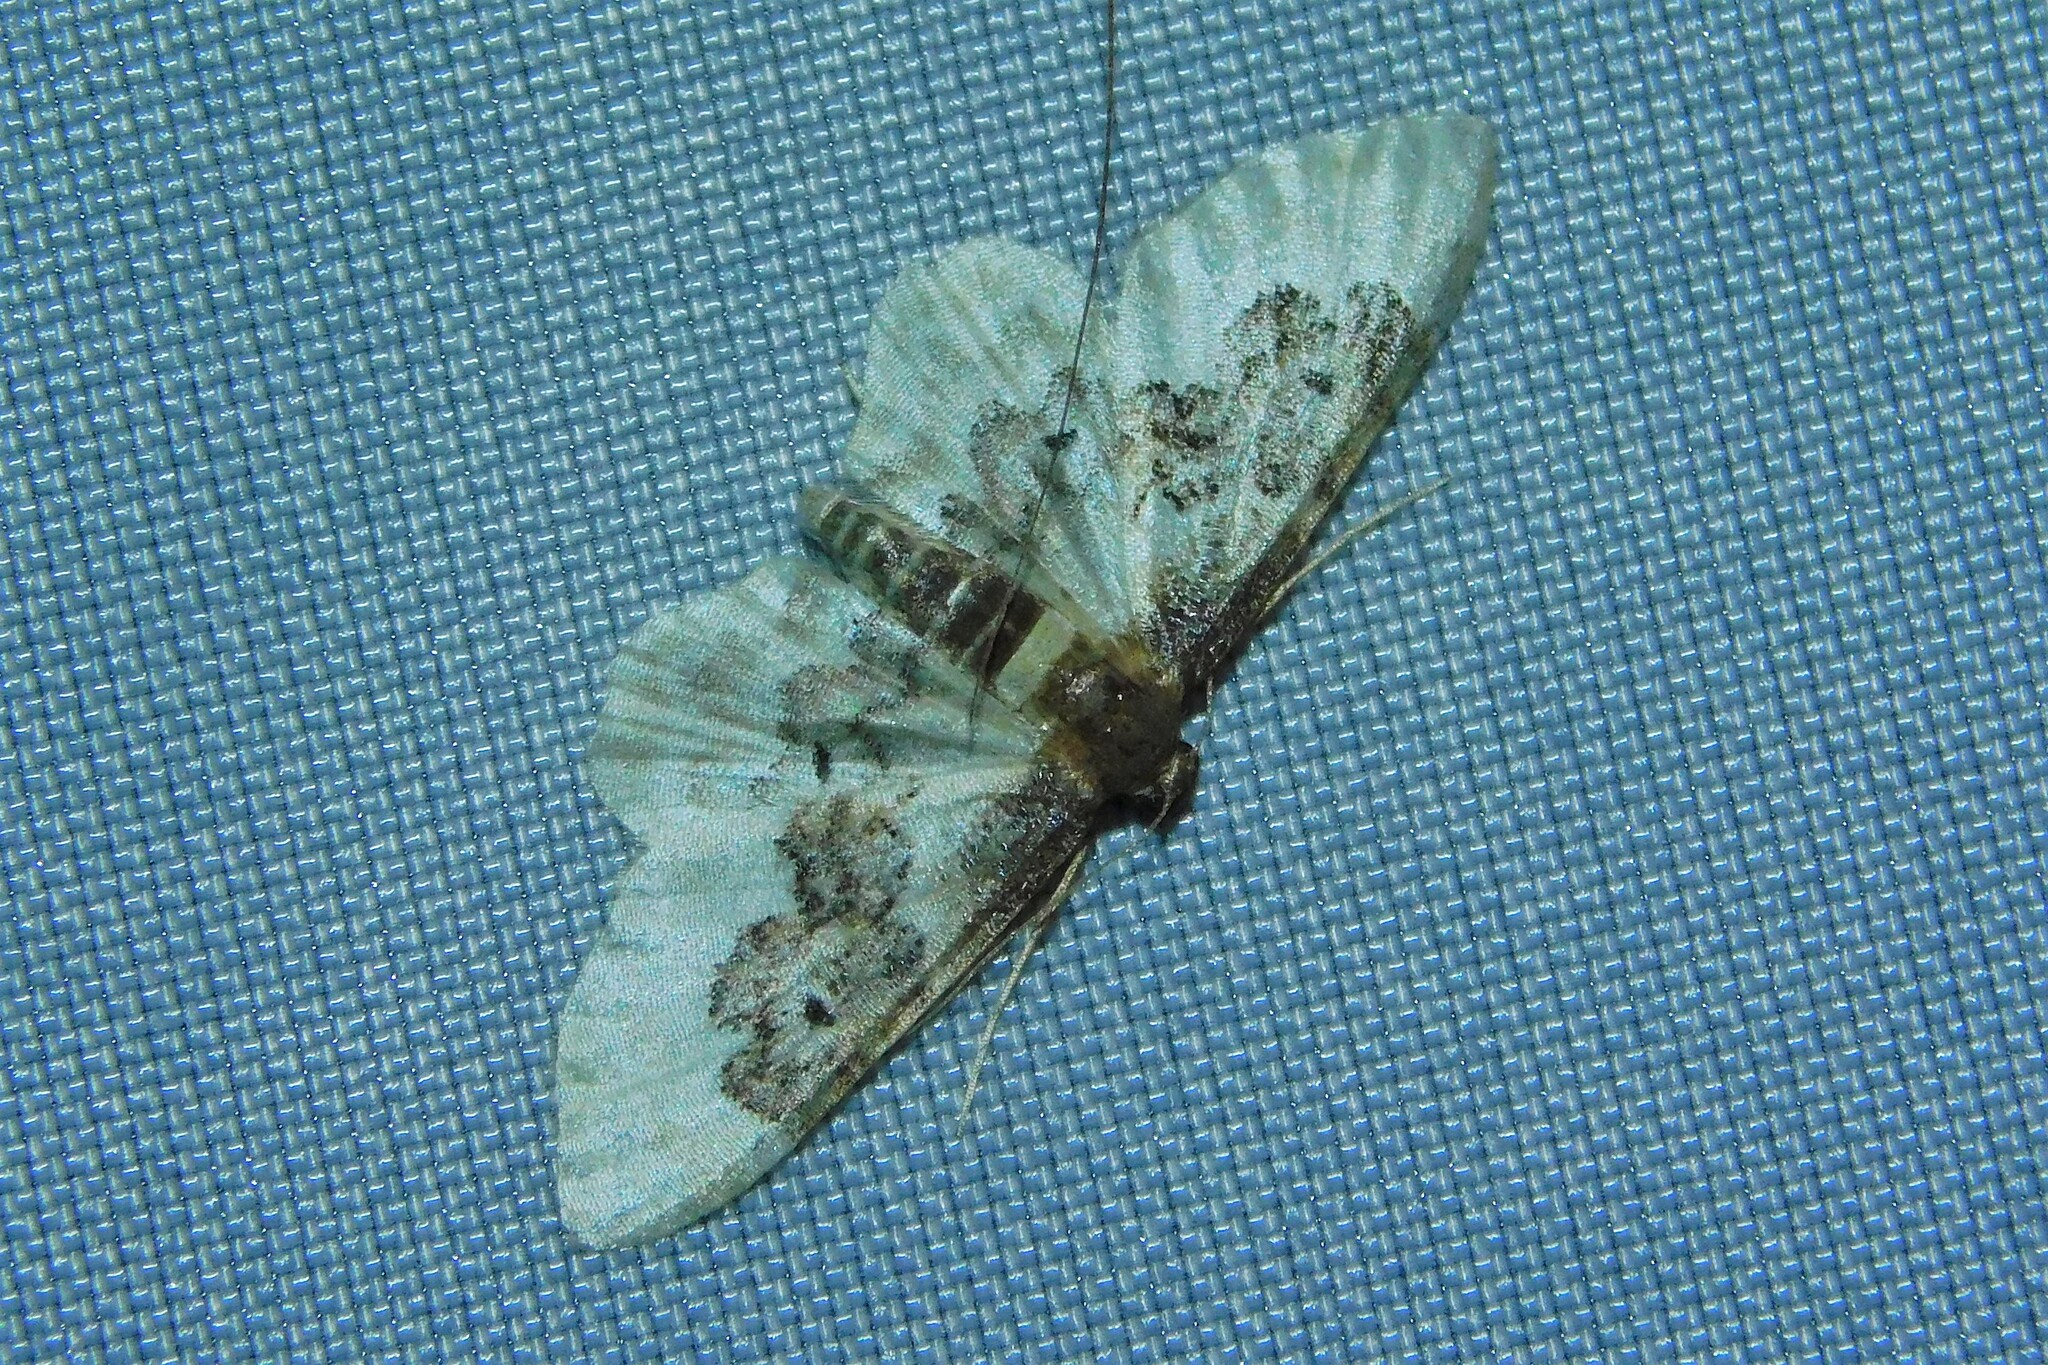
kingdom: Animalia
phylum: Arthropoda
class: Insecta
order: Lepidoptera
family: Geometridae
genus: Idaea
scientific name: Idaea rusticata
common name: Least carpet
